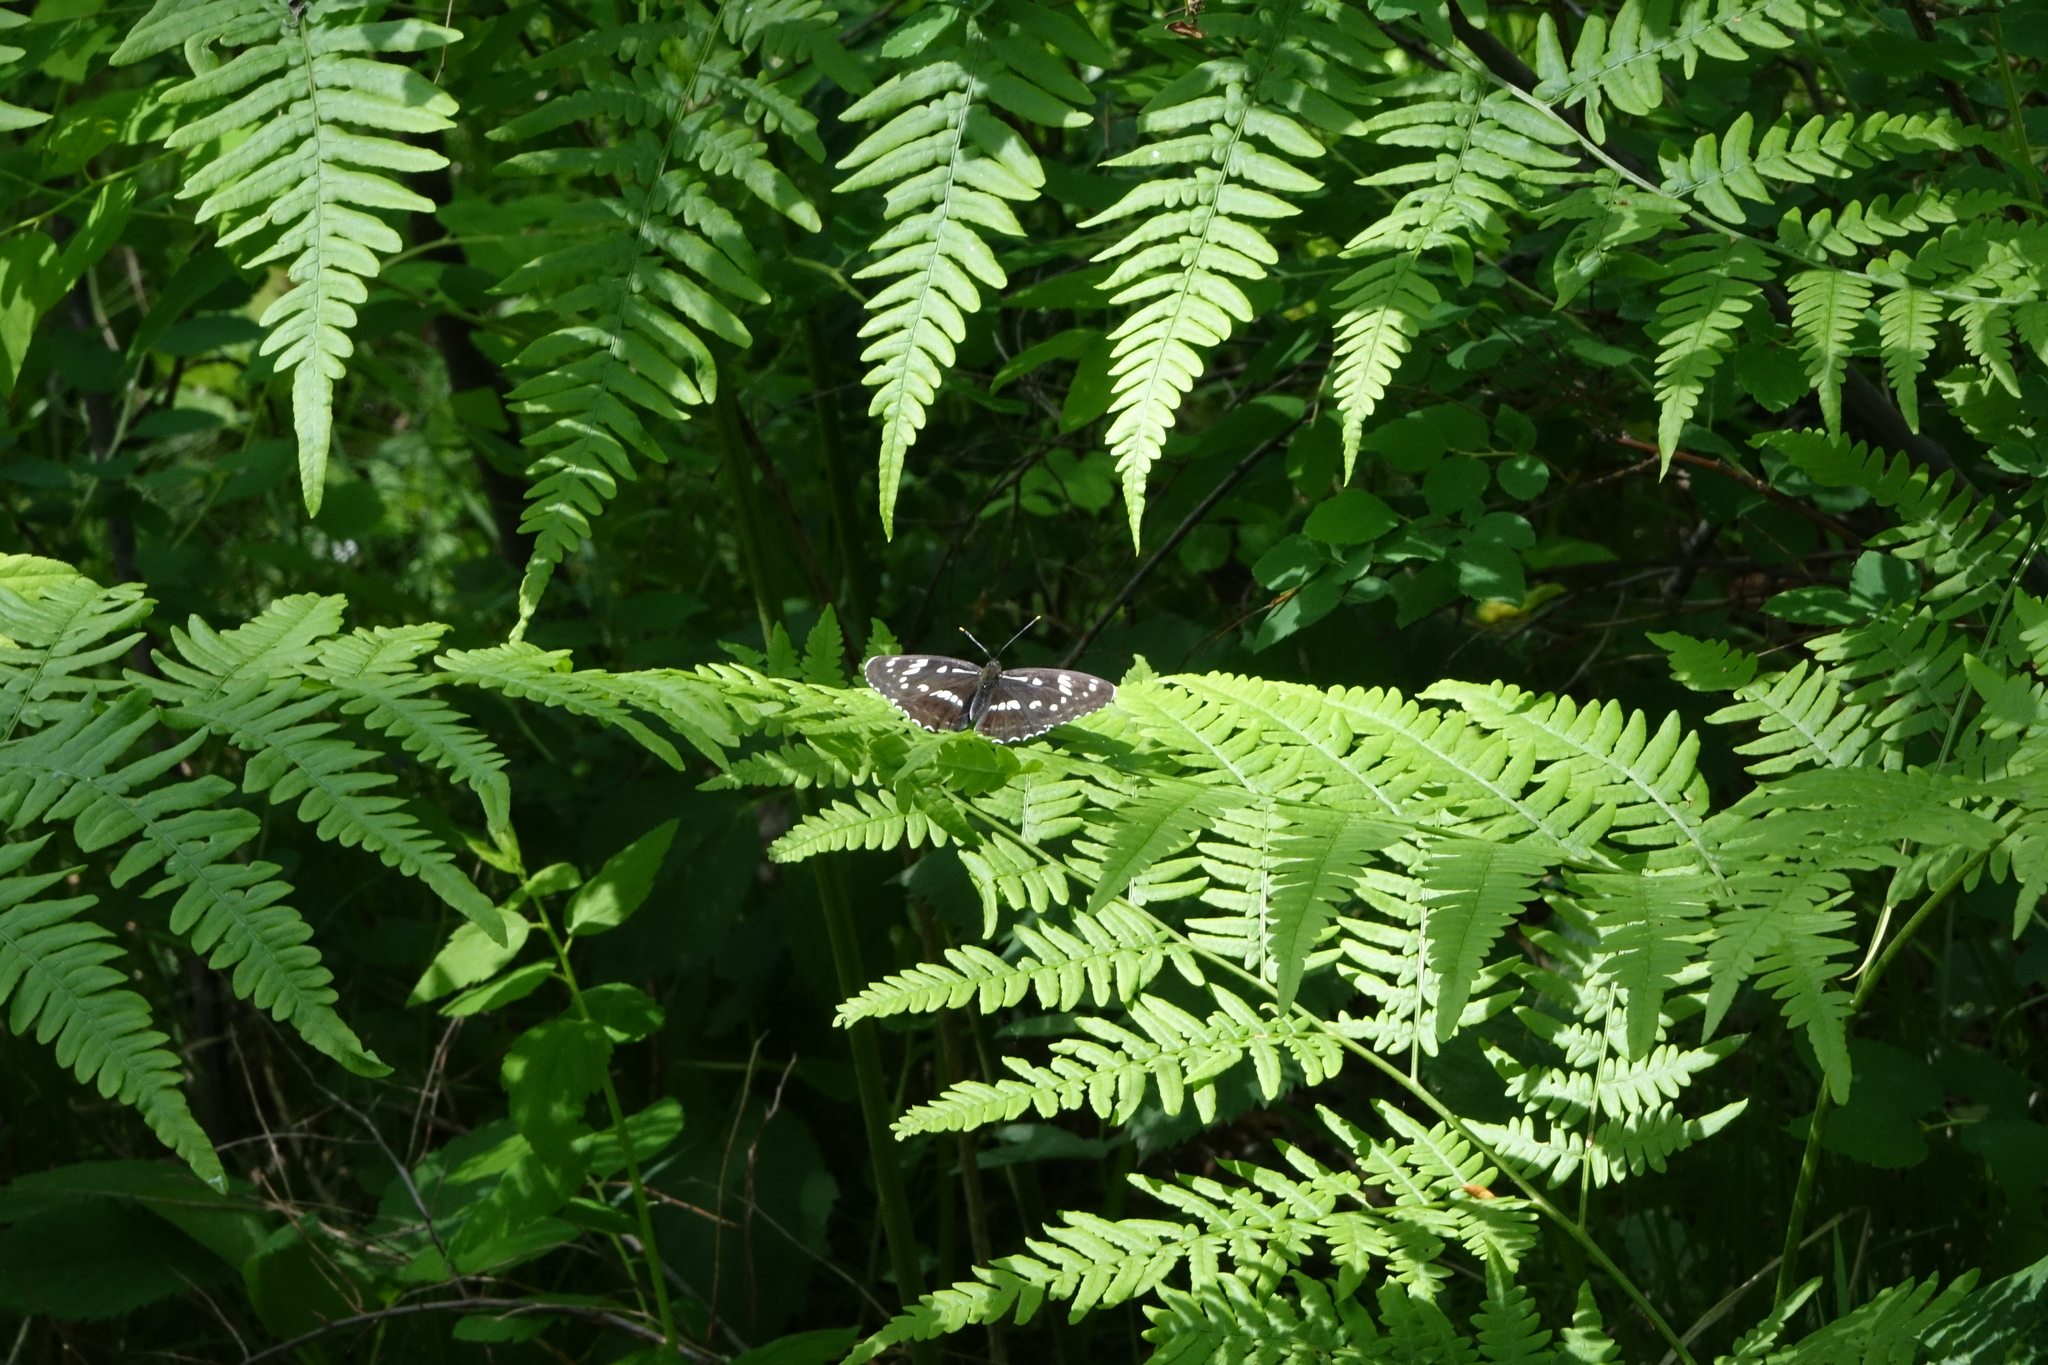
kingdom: Animalia
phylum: Arthropoda
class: Insecta
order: Lepidoptera
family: Nymphalidae
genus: Limenitis
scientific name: Limenitis helmanni
